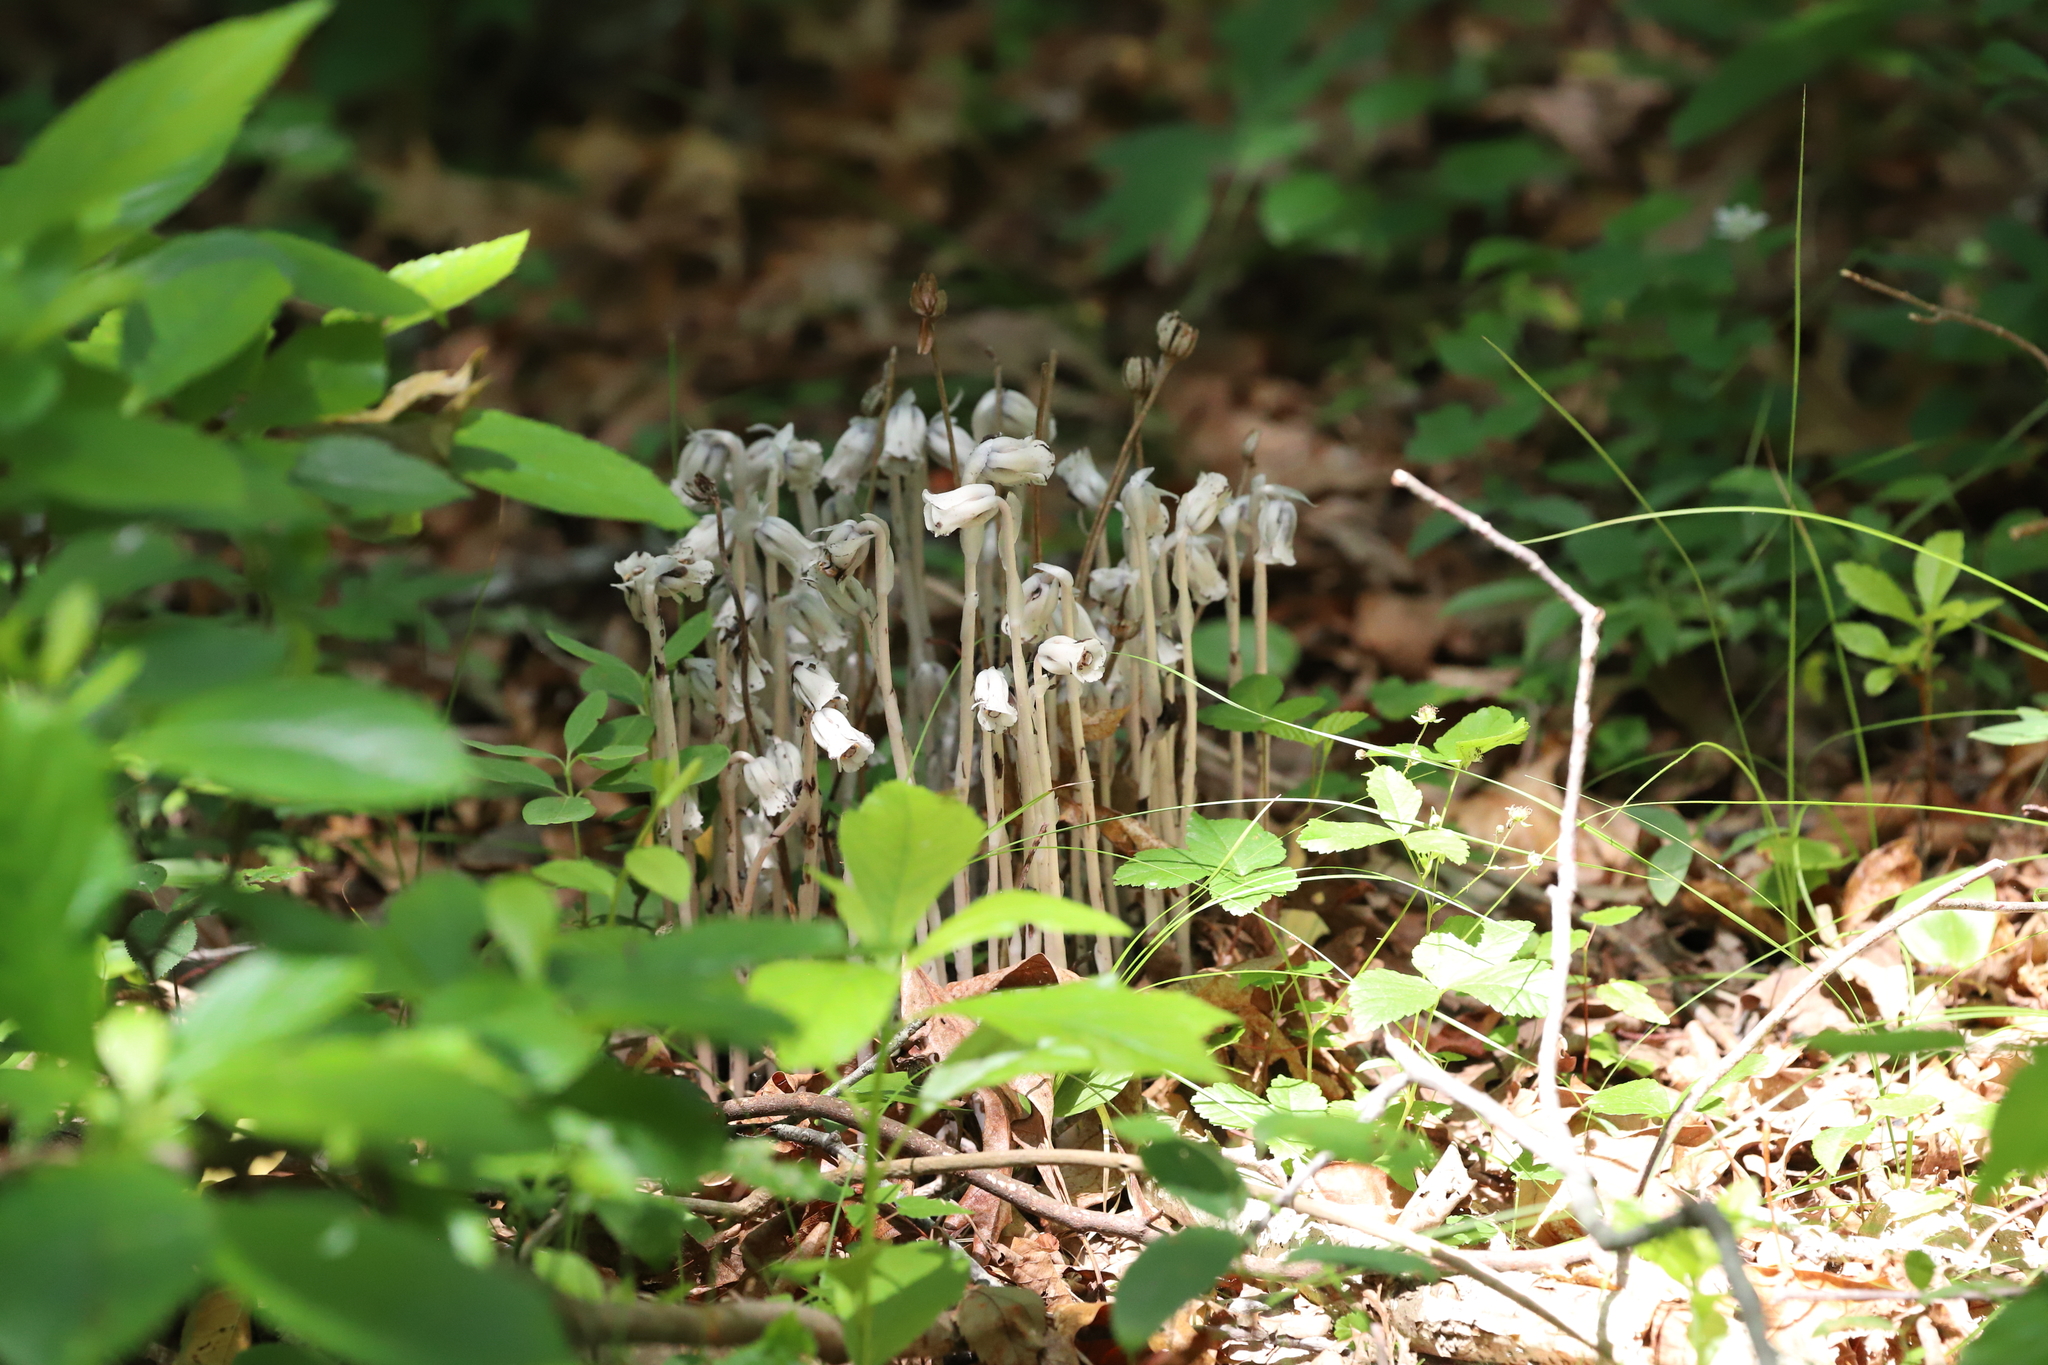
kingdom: Plantae
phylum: Tracheophyta
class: Magnoliopsida
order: Ericales
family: Ericaceae
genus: Monotropa
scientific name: Monotropa uniflora
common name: Convulsion root
